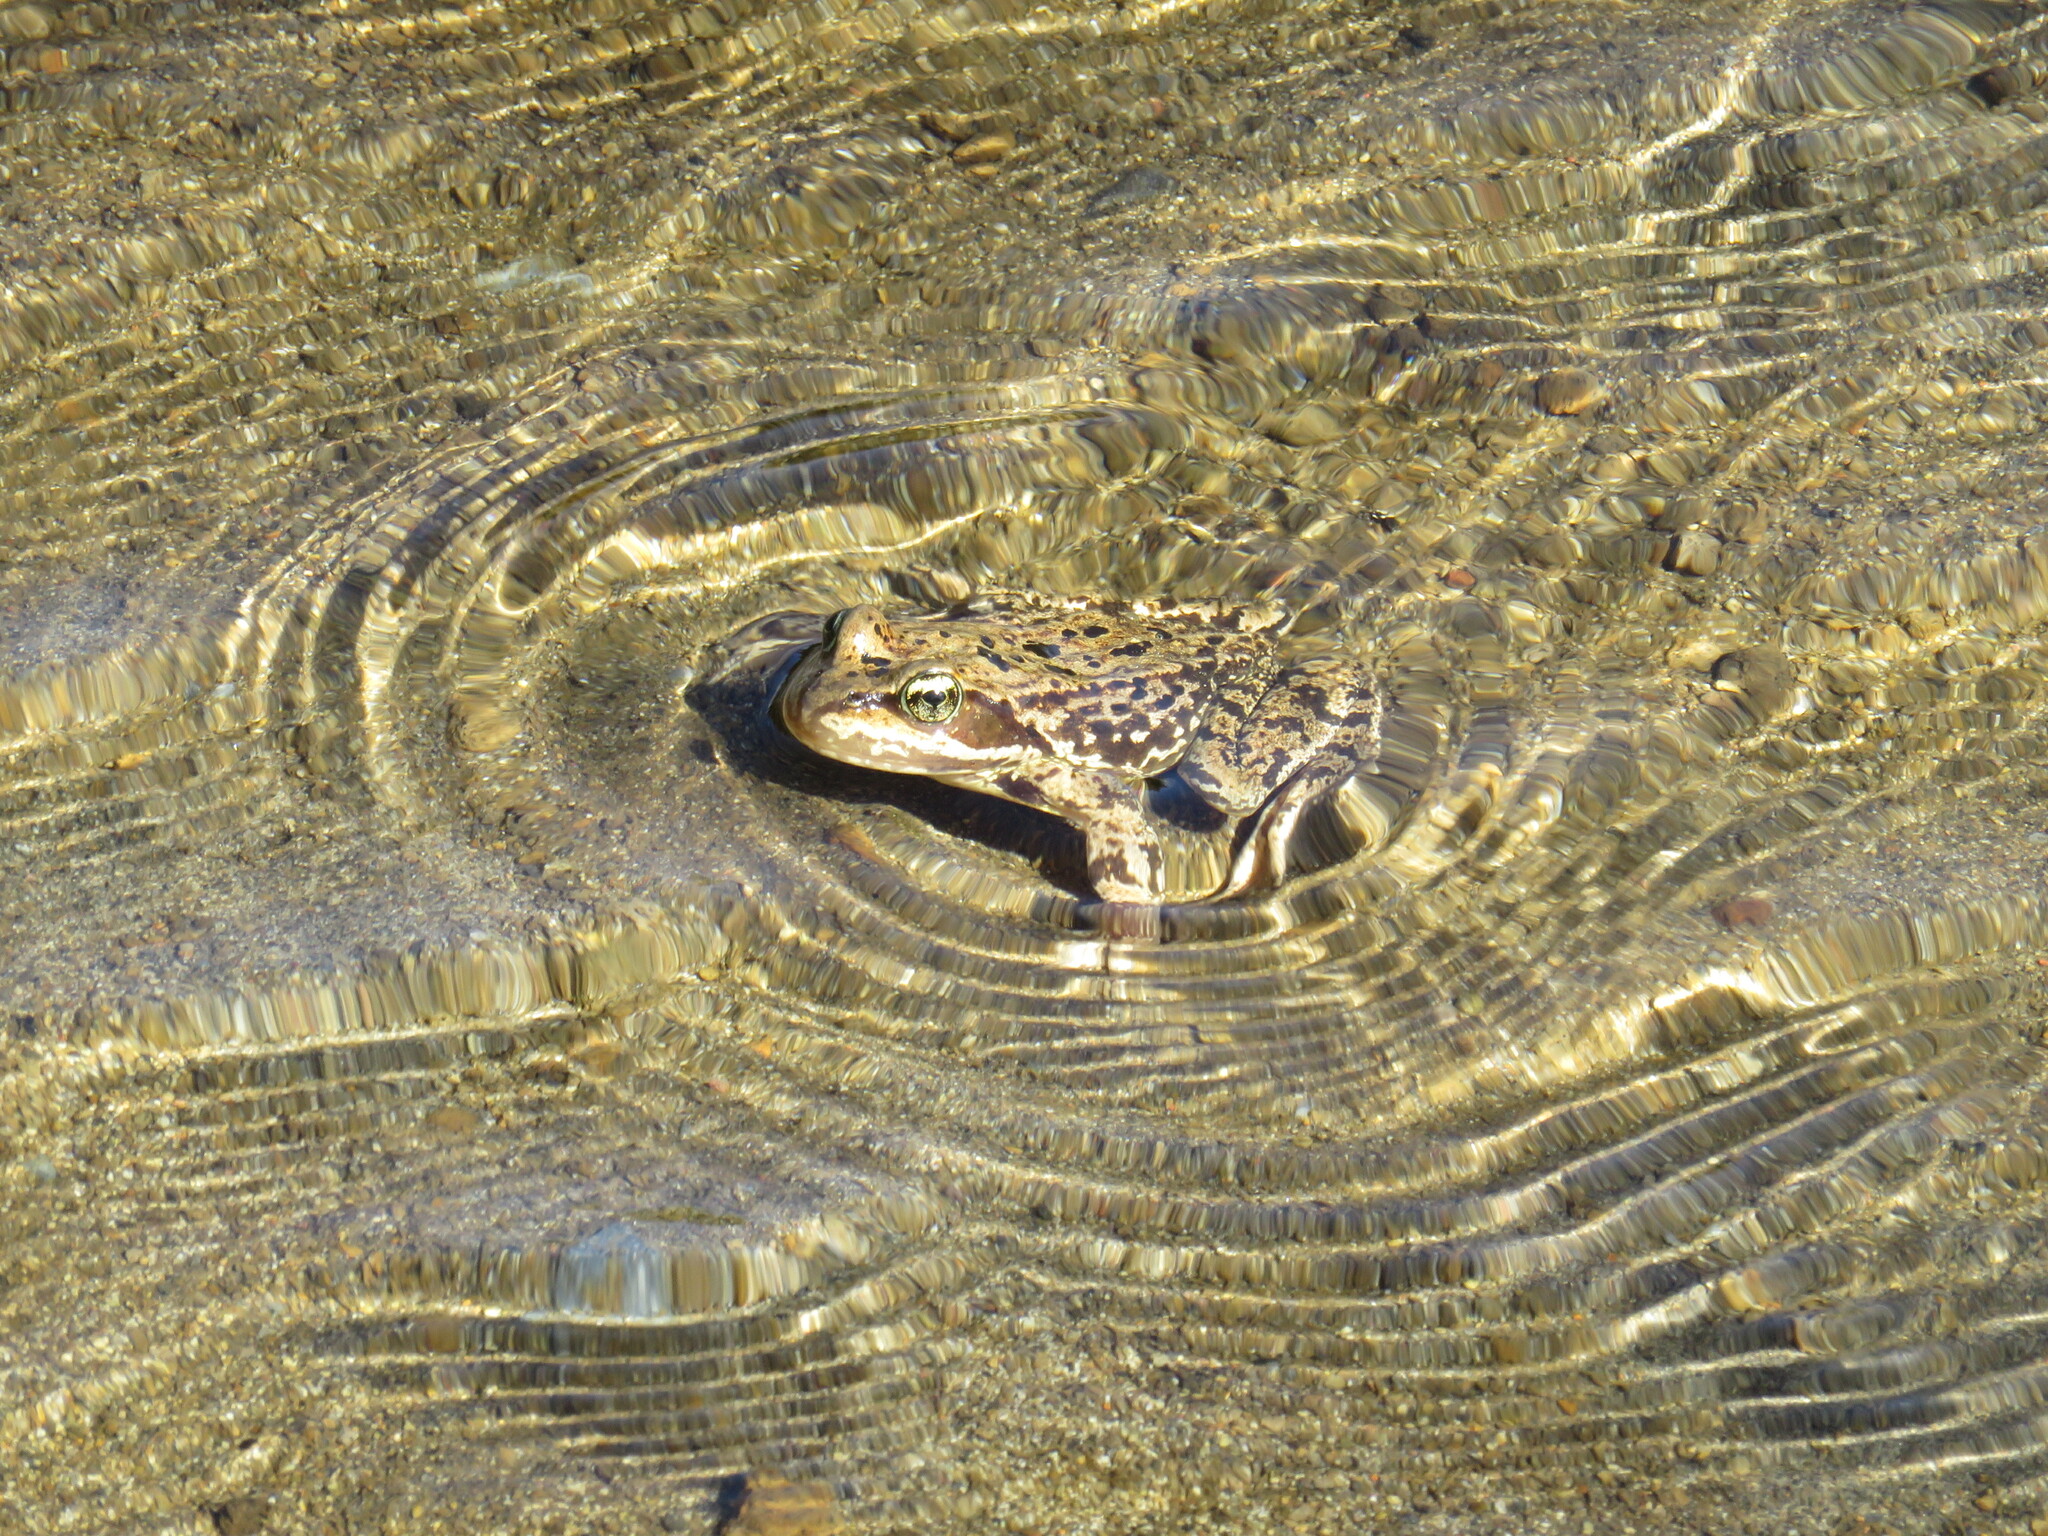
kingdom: Animalia
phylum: Chordata
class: Amphibia
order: Anura
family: Ranidae
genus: Rana
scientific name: Rana cascadae
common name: Cascades frog
